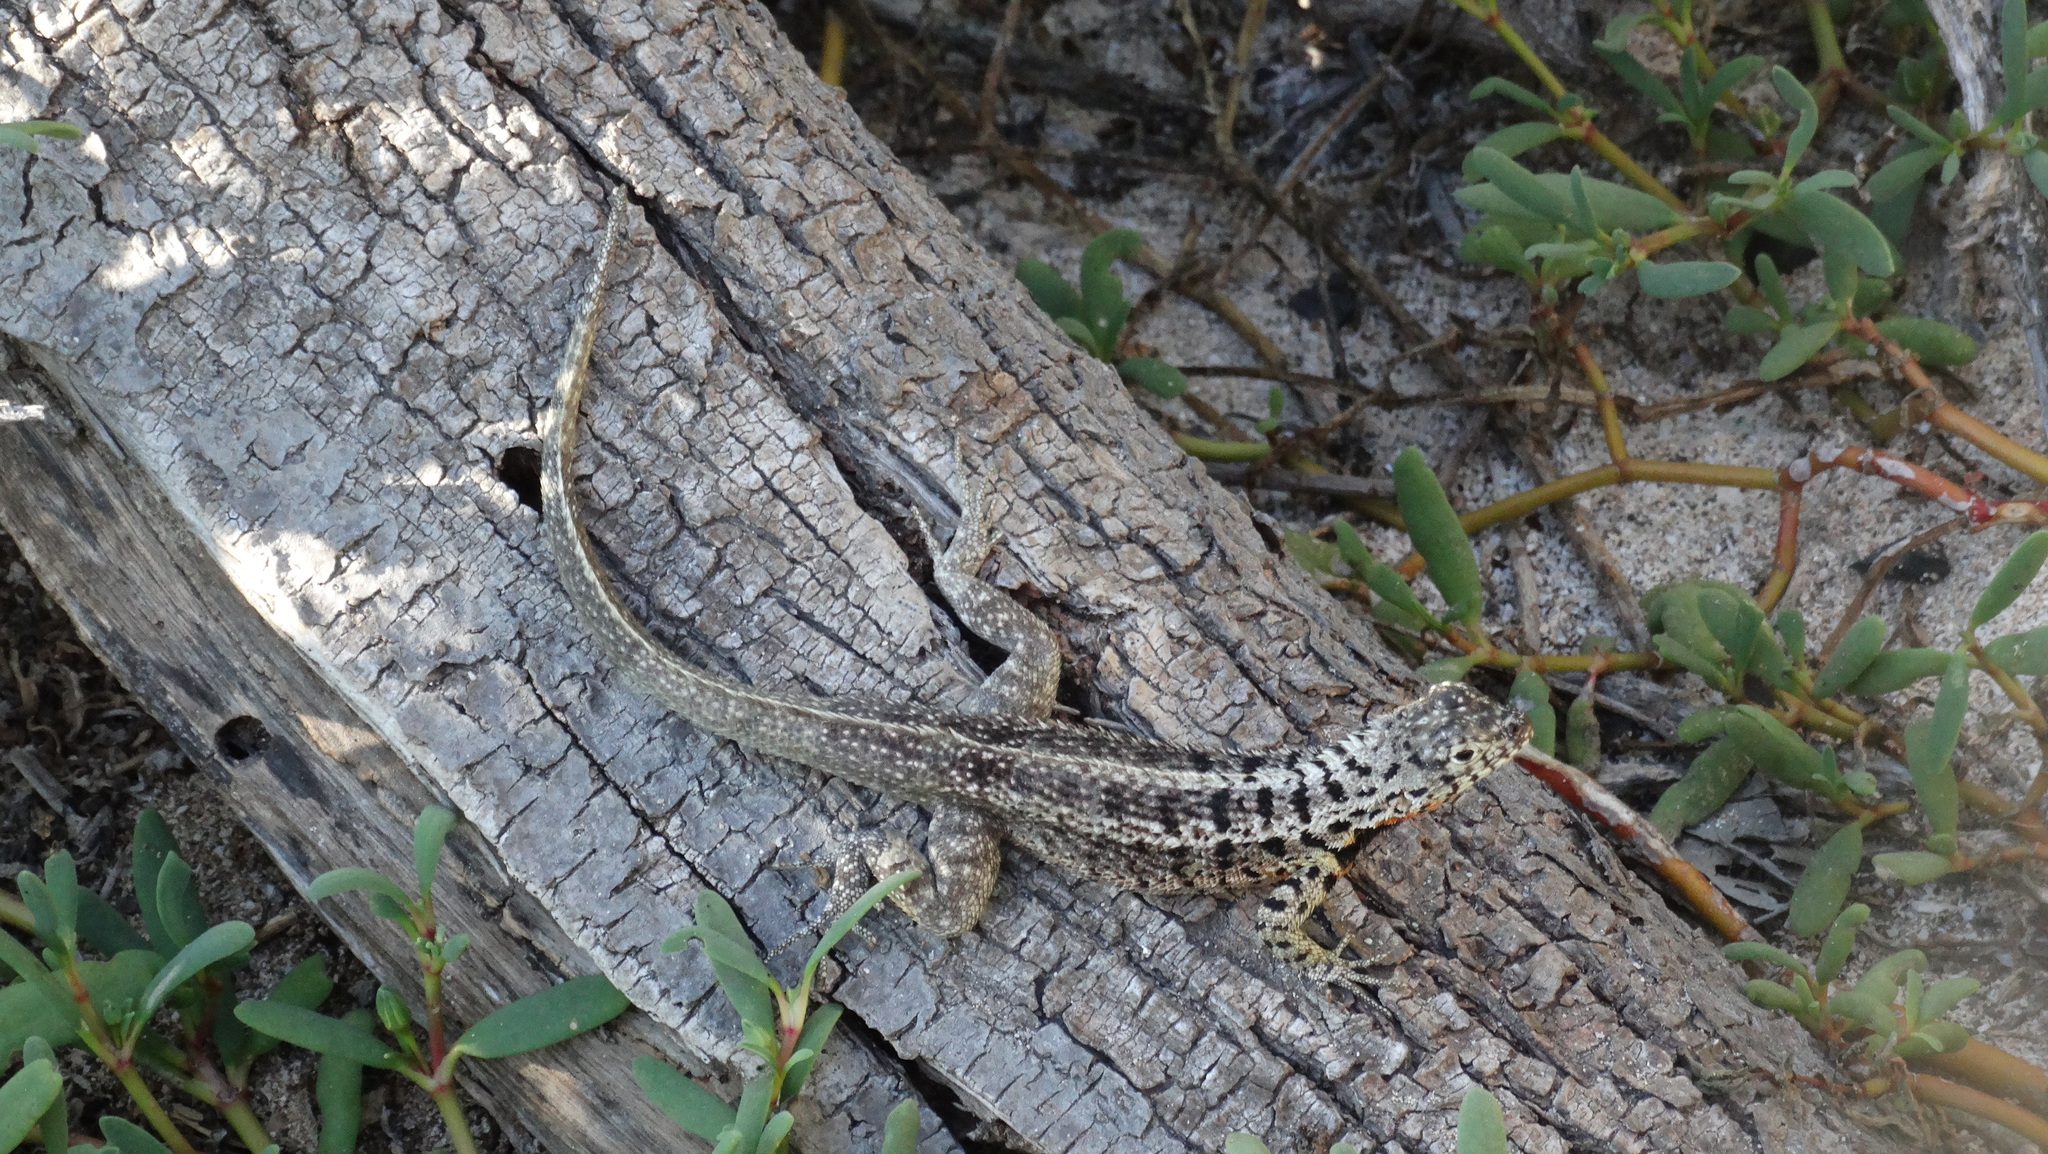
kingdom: Animalia
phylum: Chordata
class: Squamata
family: Tropiduridae
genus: Microlophus
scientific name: Microlophus indefatigabilis
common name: Galapagos lava lizard
